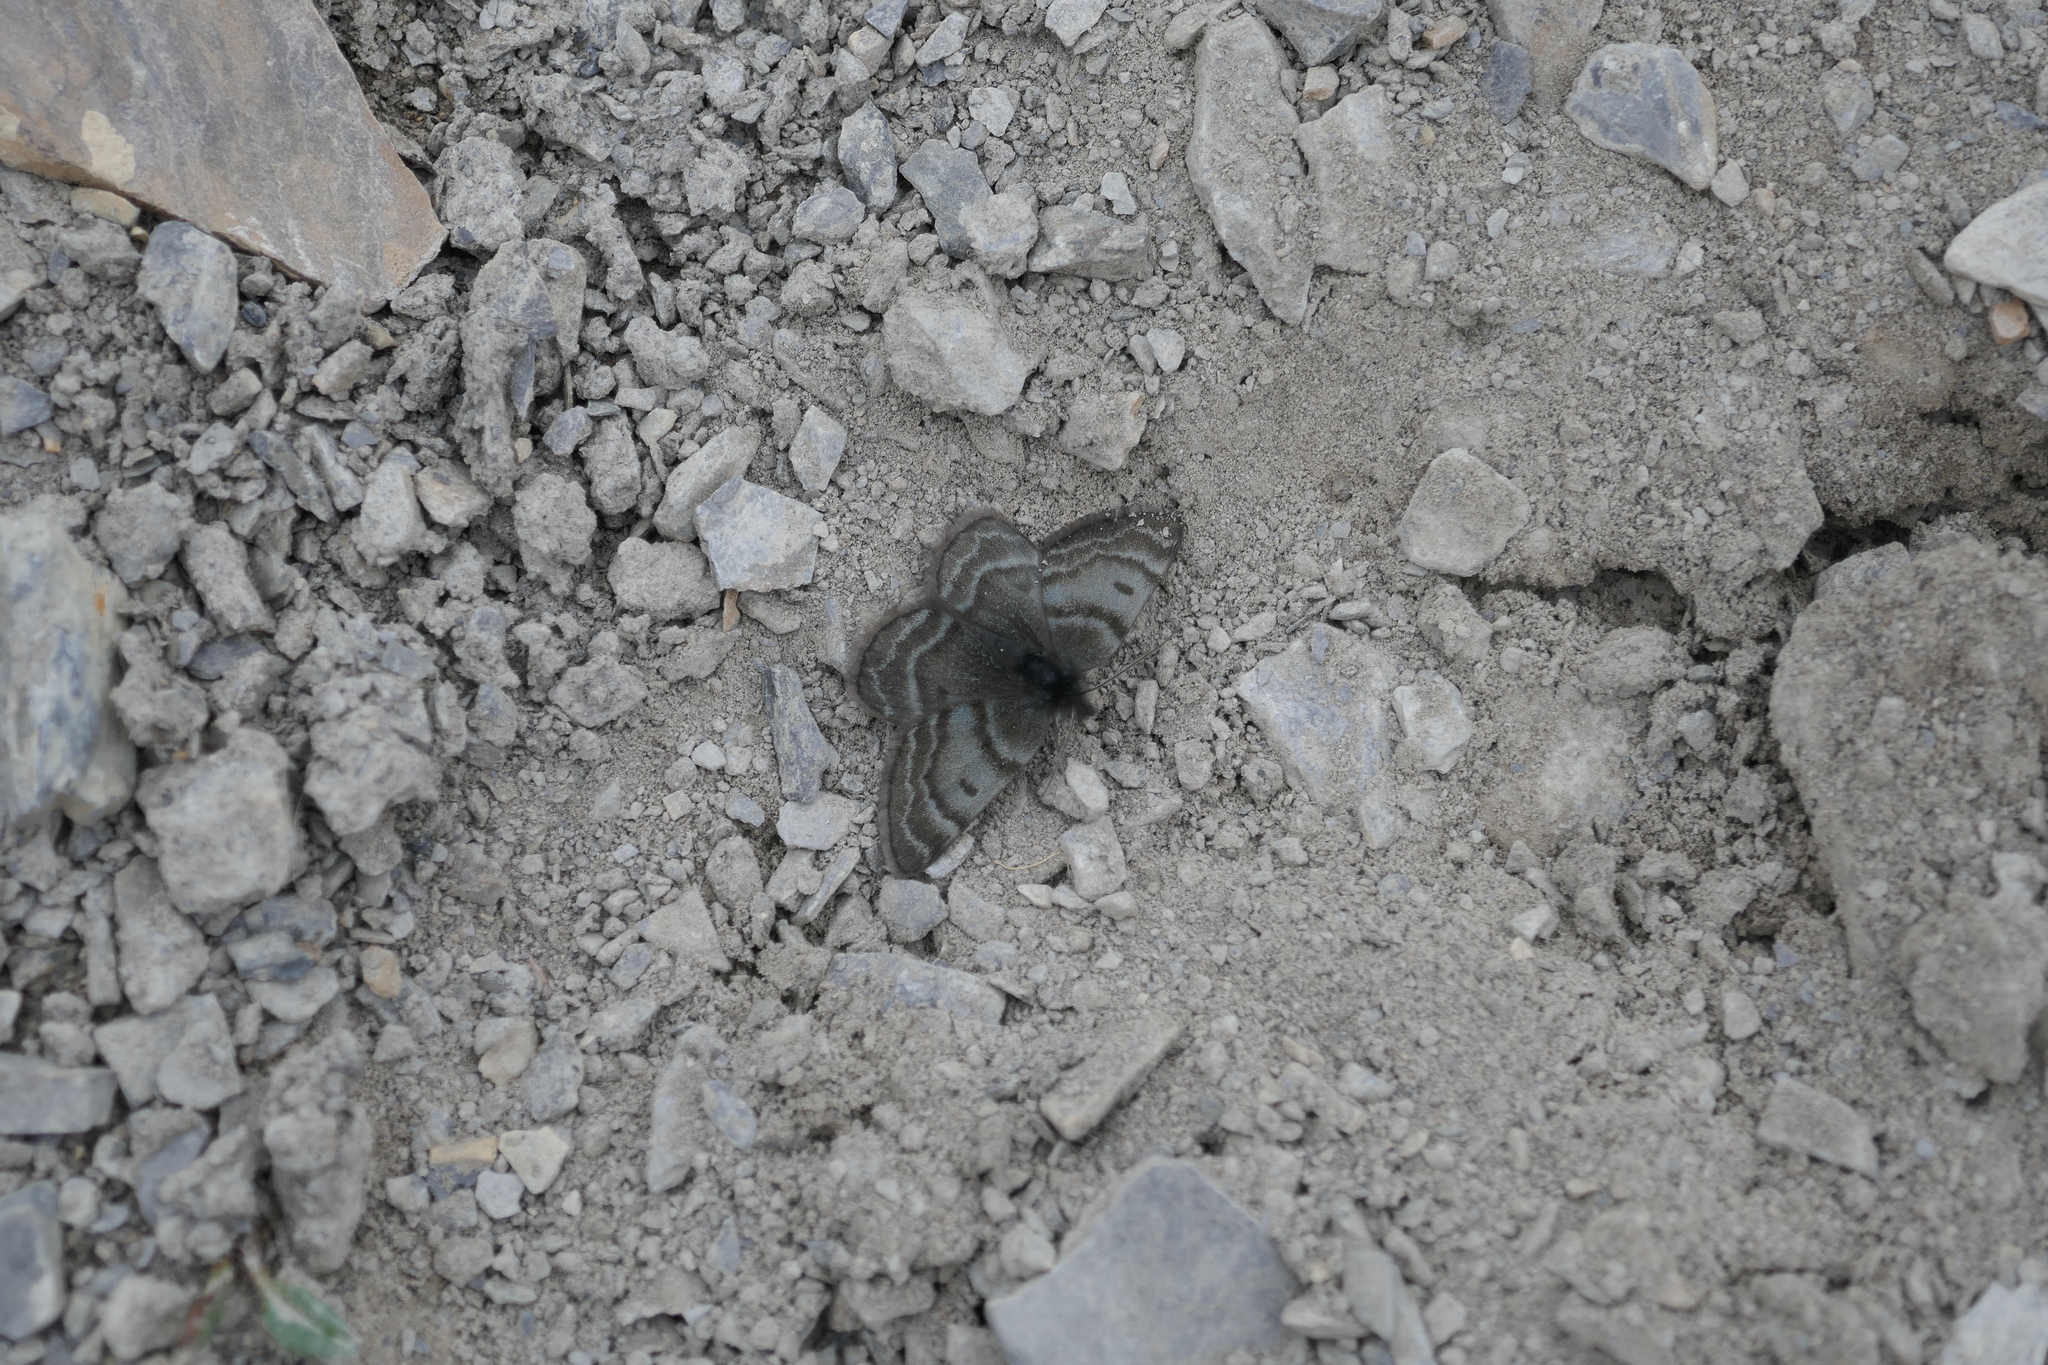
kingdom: Animalia
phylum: Arthropoda
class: Insecta
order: Lepidoptera
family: Geometridae
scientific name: Geometridae
